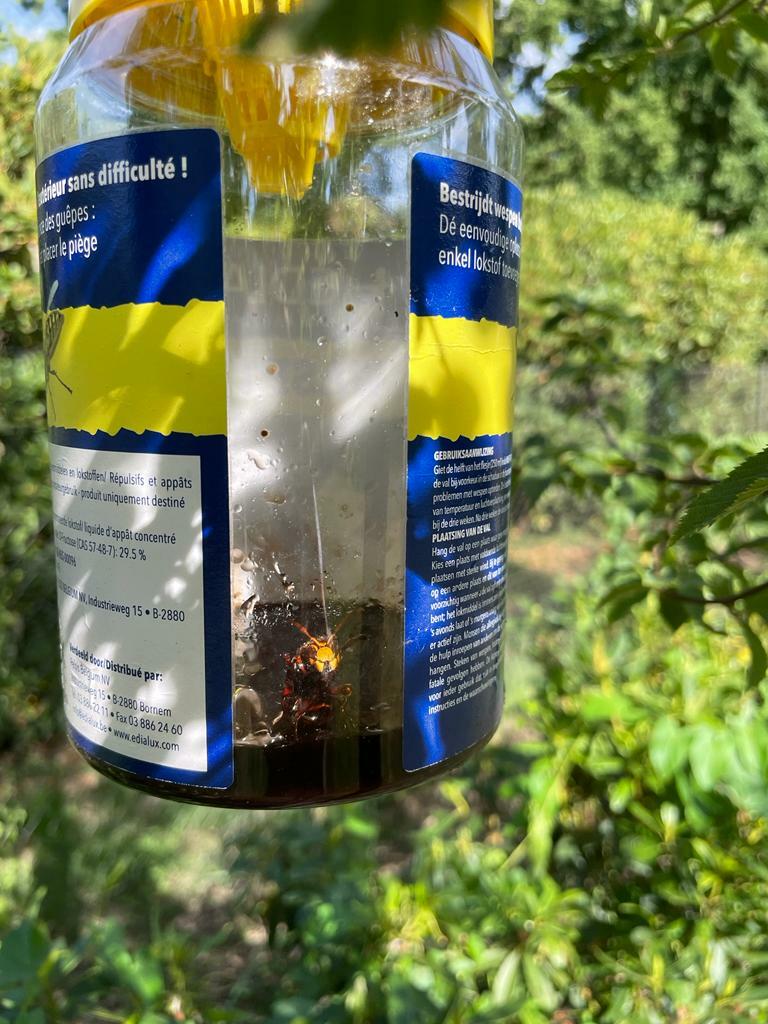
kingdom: Animalia
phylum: Arthropoda
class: Insecta
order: Hymenoptera
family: Vespidae
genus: Vespa
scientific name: Vespa crabro
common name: Hornet
